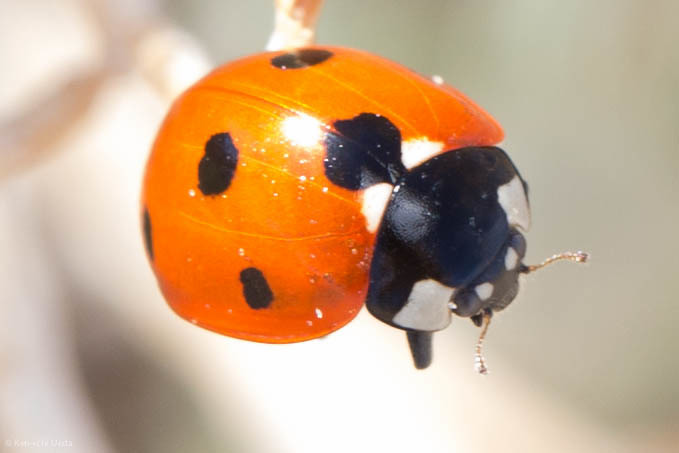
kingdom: Animalia
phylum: Arthropoda
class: Insecta
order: Coleoptera
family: Coccinellidae
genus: Coccinella
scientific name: Coccinella septempunctata
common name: Sevenspotted lady beetle
